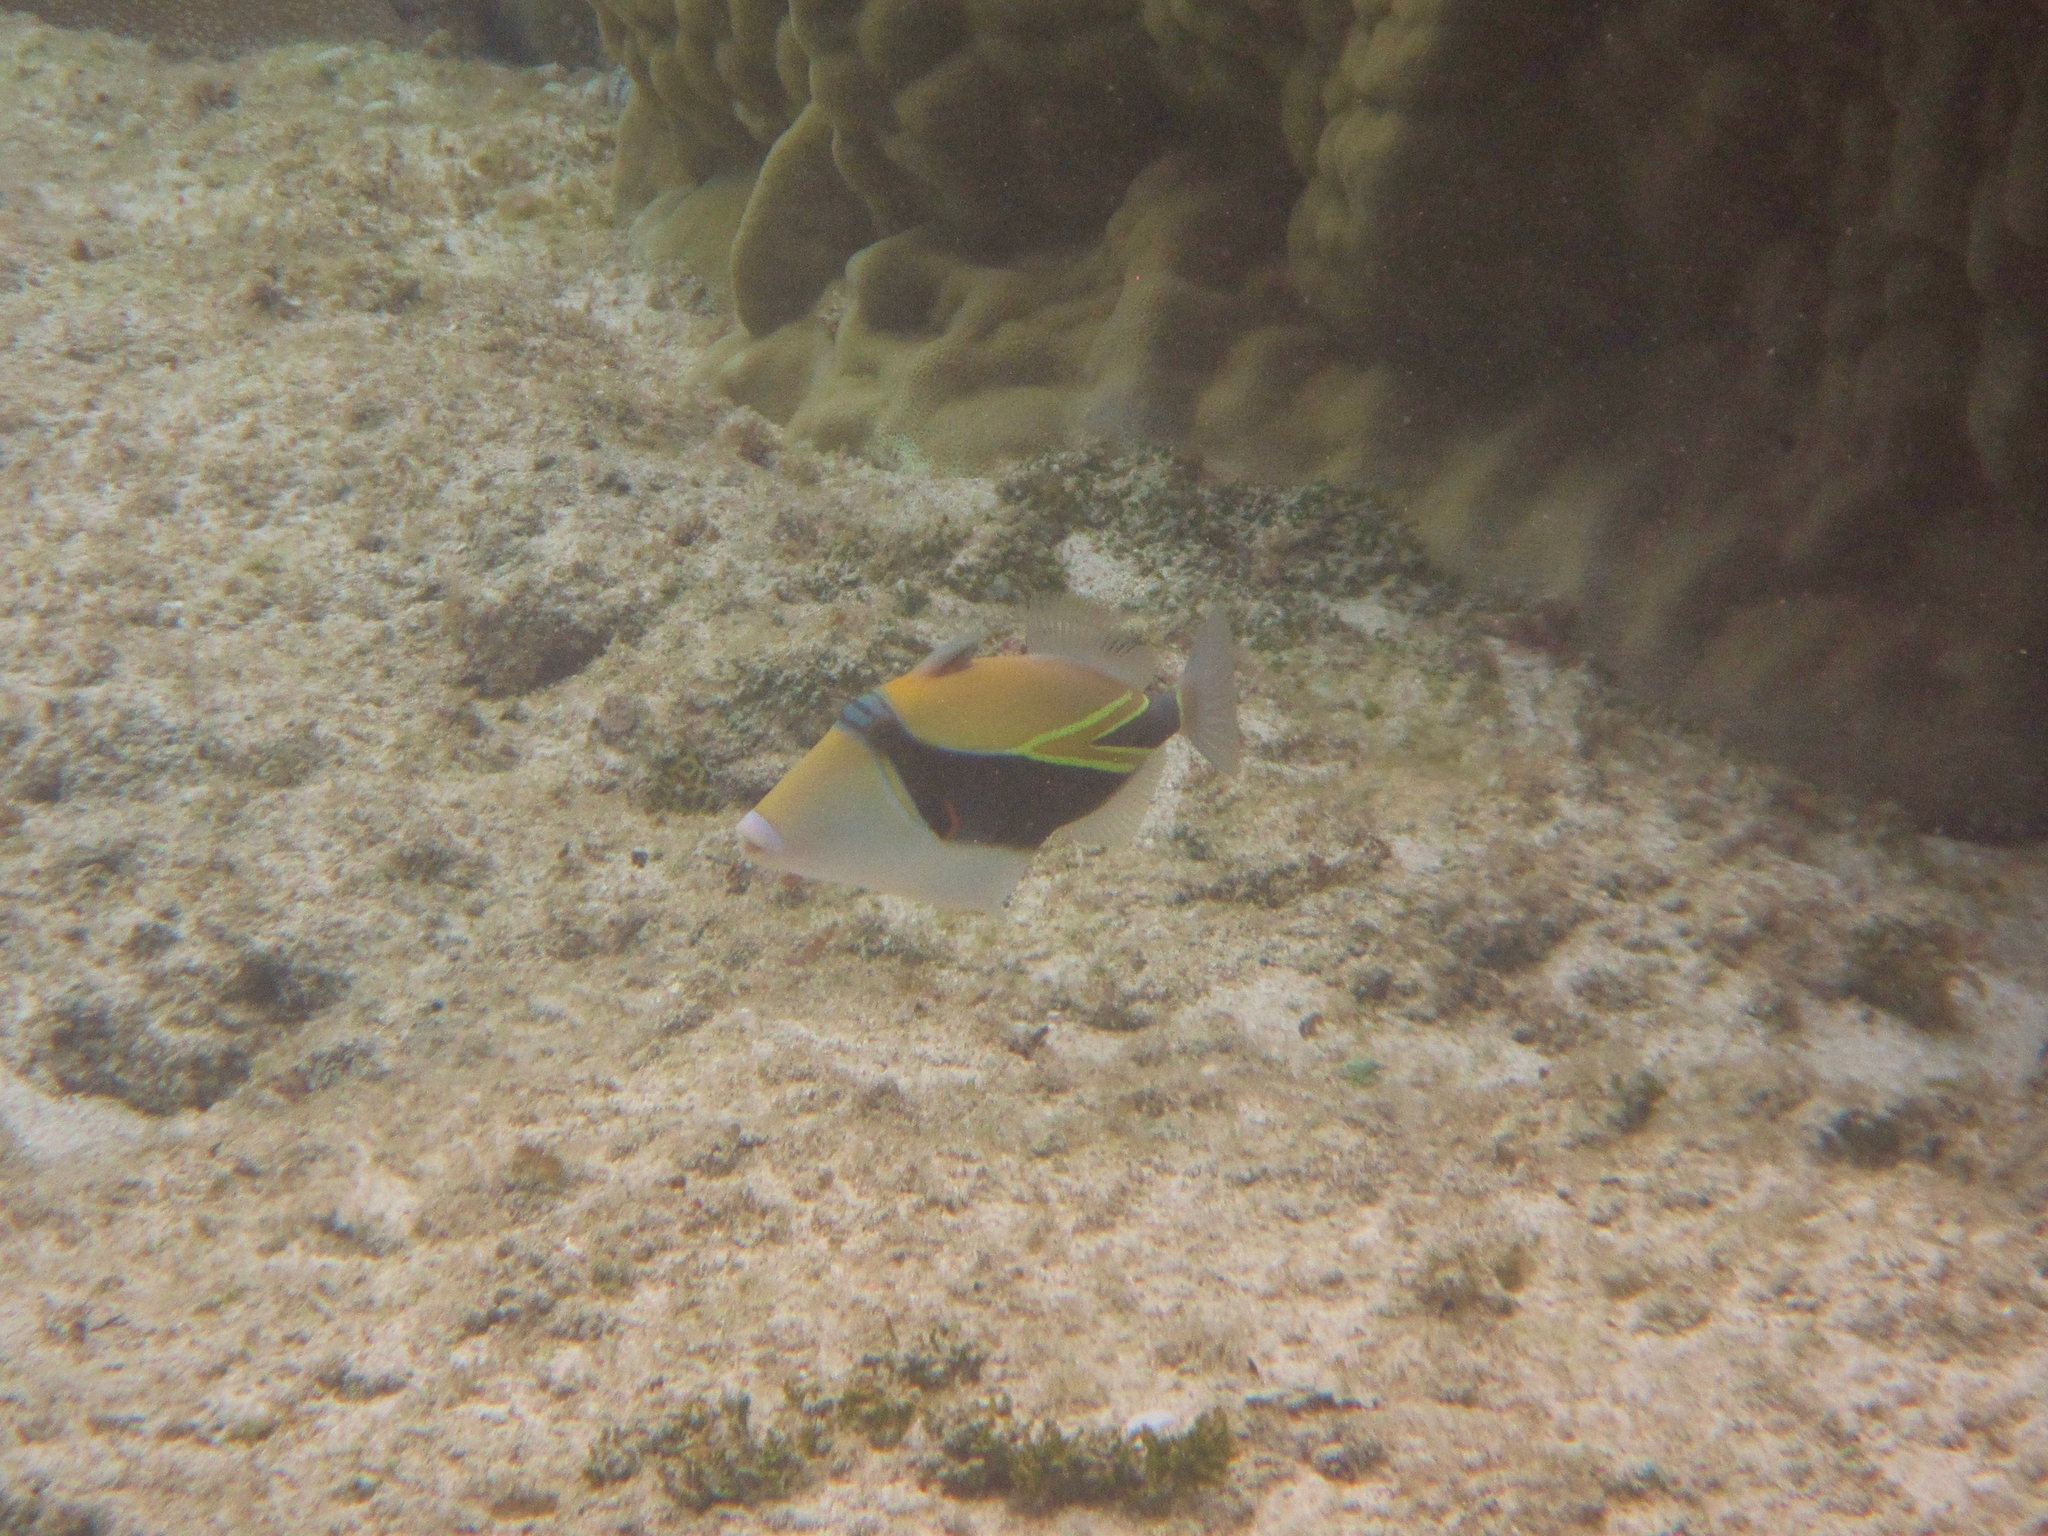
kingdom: Animalia
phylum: Chordata
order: Tetraodontiformes
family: Balistidae
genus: Rhinecanthus
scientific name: Rhinecanthus rectangulus
